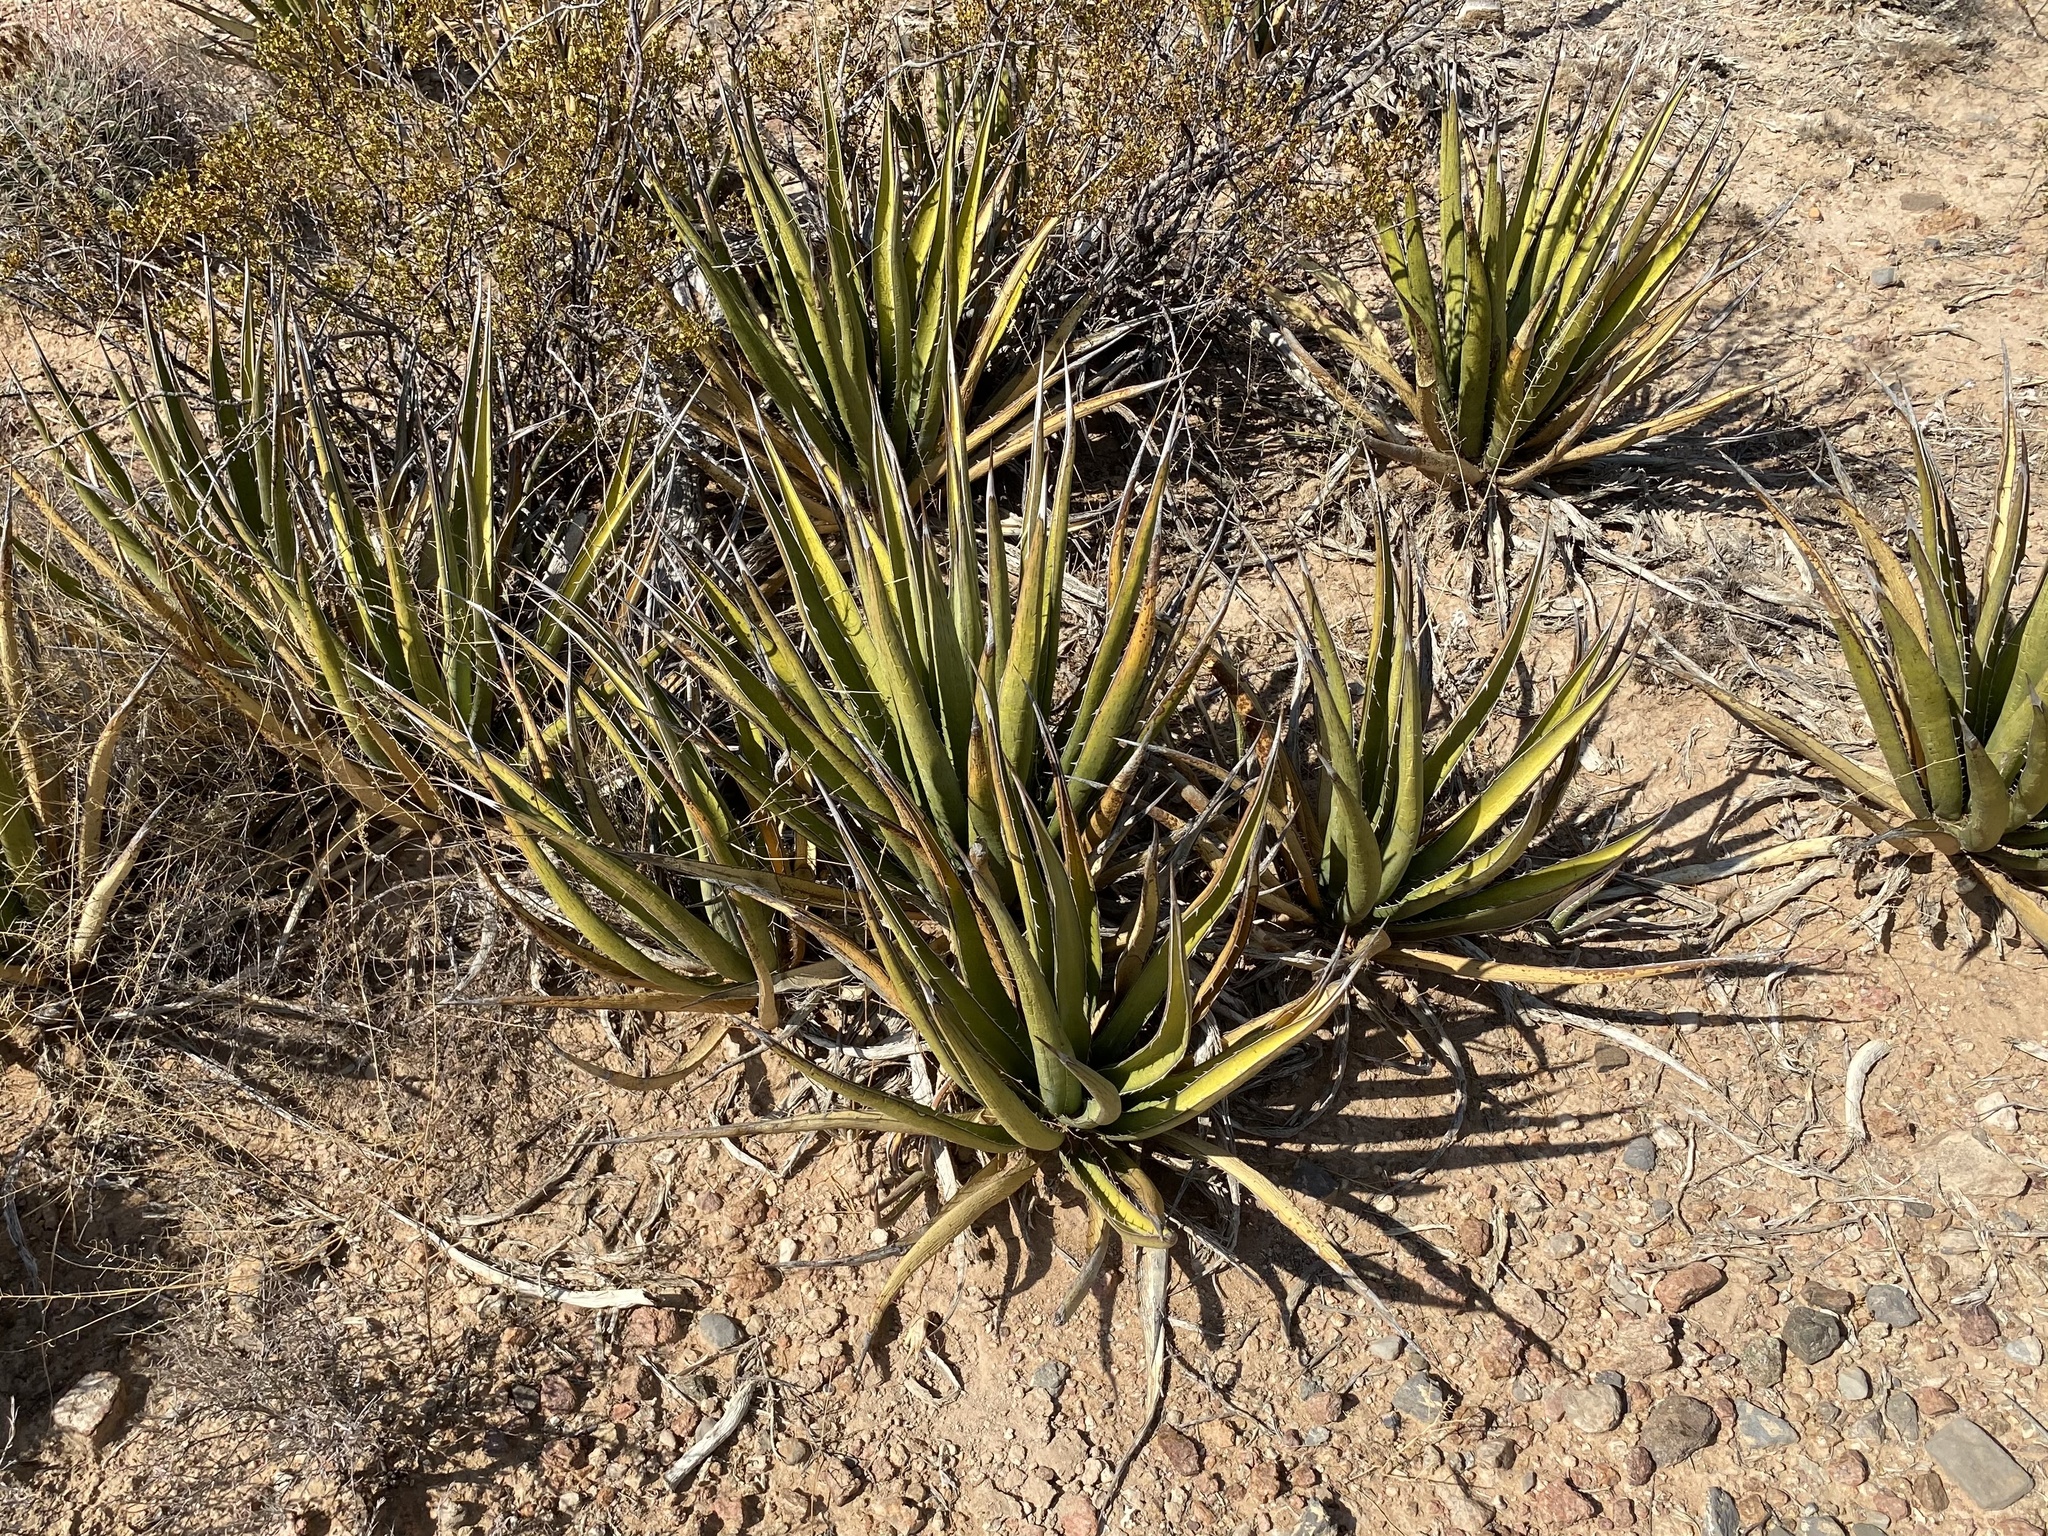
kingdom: Plantae
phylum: Tracheophyta
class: Liliopsida
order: Asparagales
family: Asparagaceae
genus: Agave
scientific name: Agave lechuguilla
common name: Lecheguilla agave
